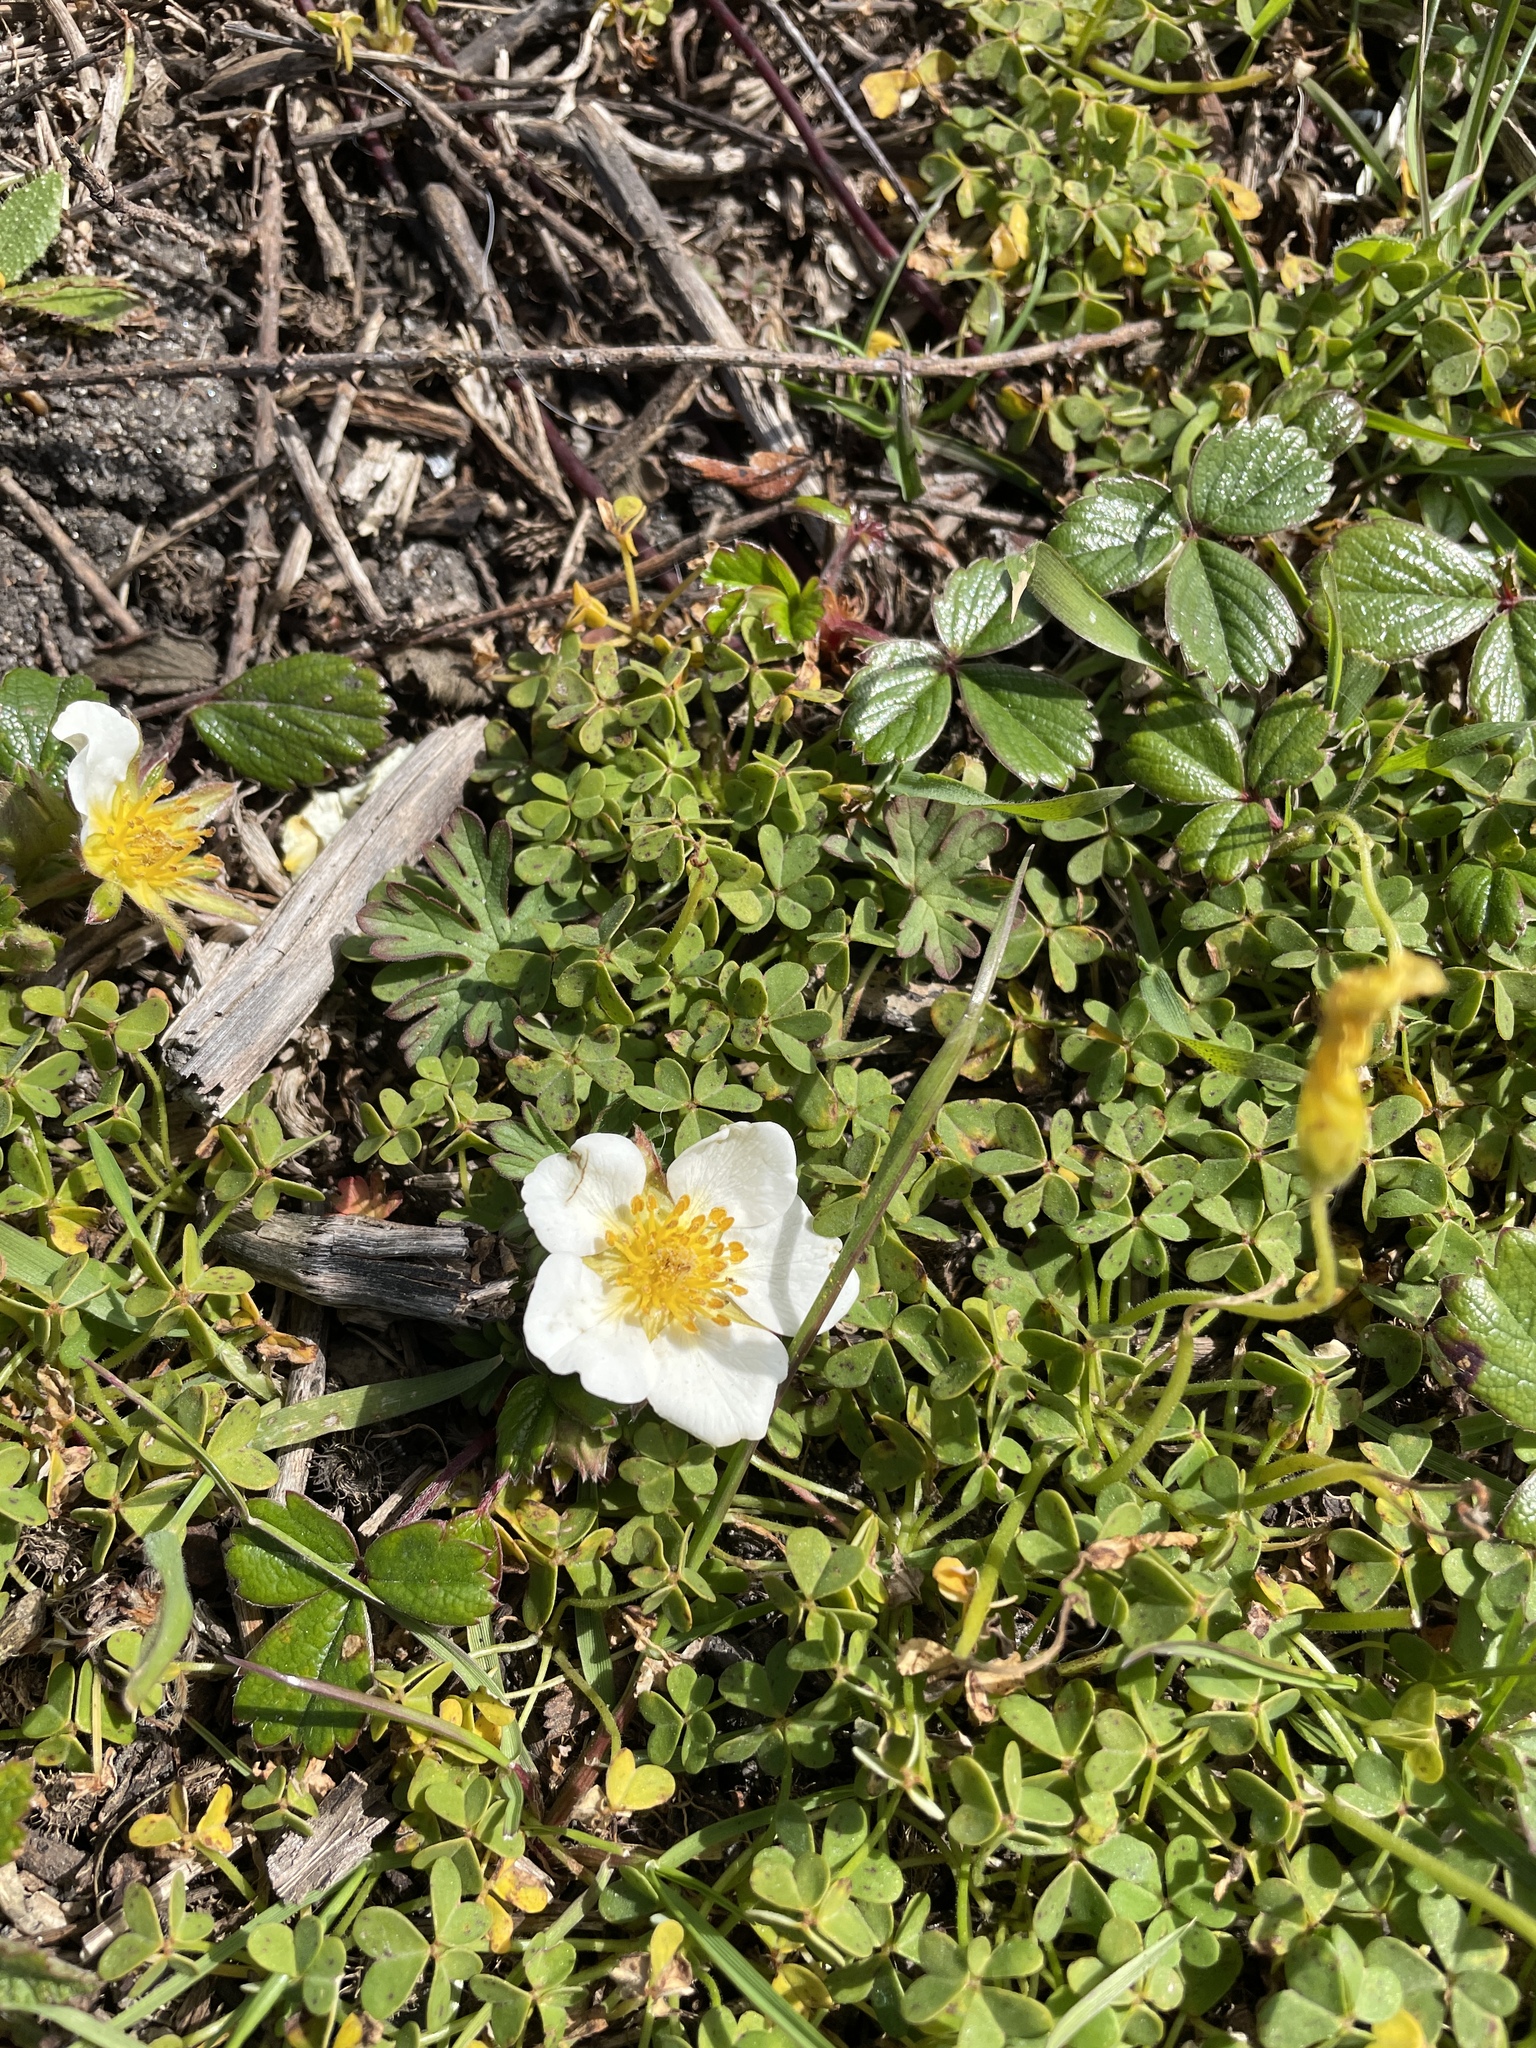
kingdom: Plantae
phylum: Tracheophyta
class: Magnoliopsida
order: Rosales
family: Rosaceae
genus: Fragaria
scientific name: Fragaria chiloensis
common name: Beach strawberry
